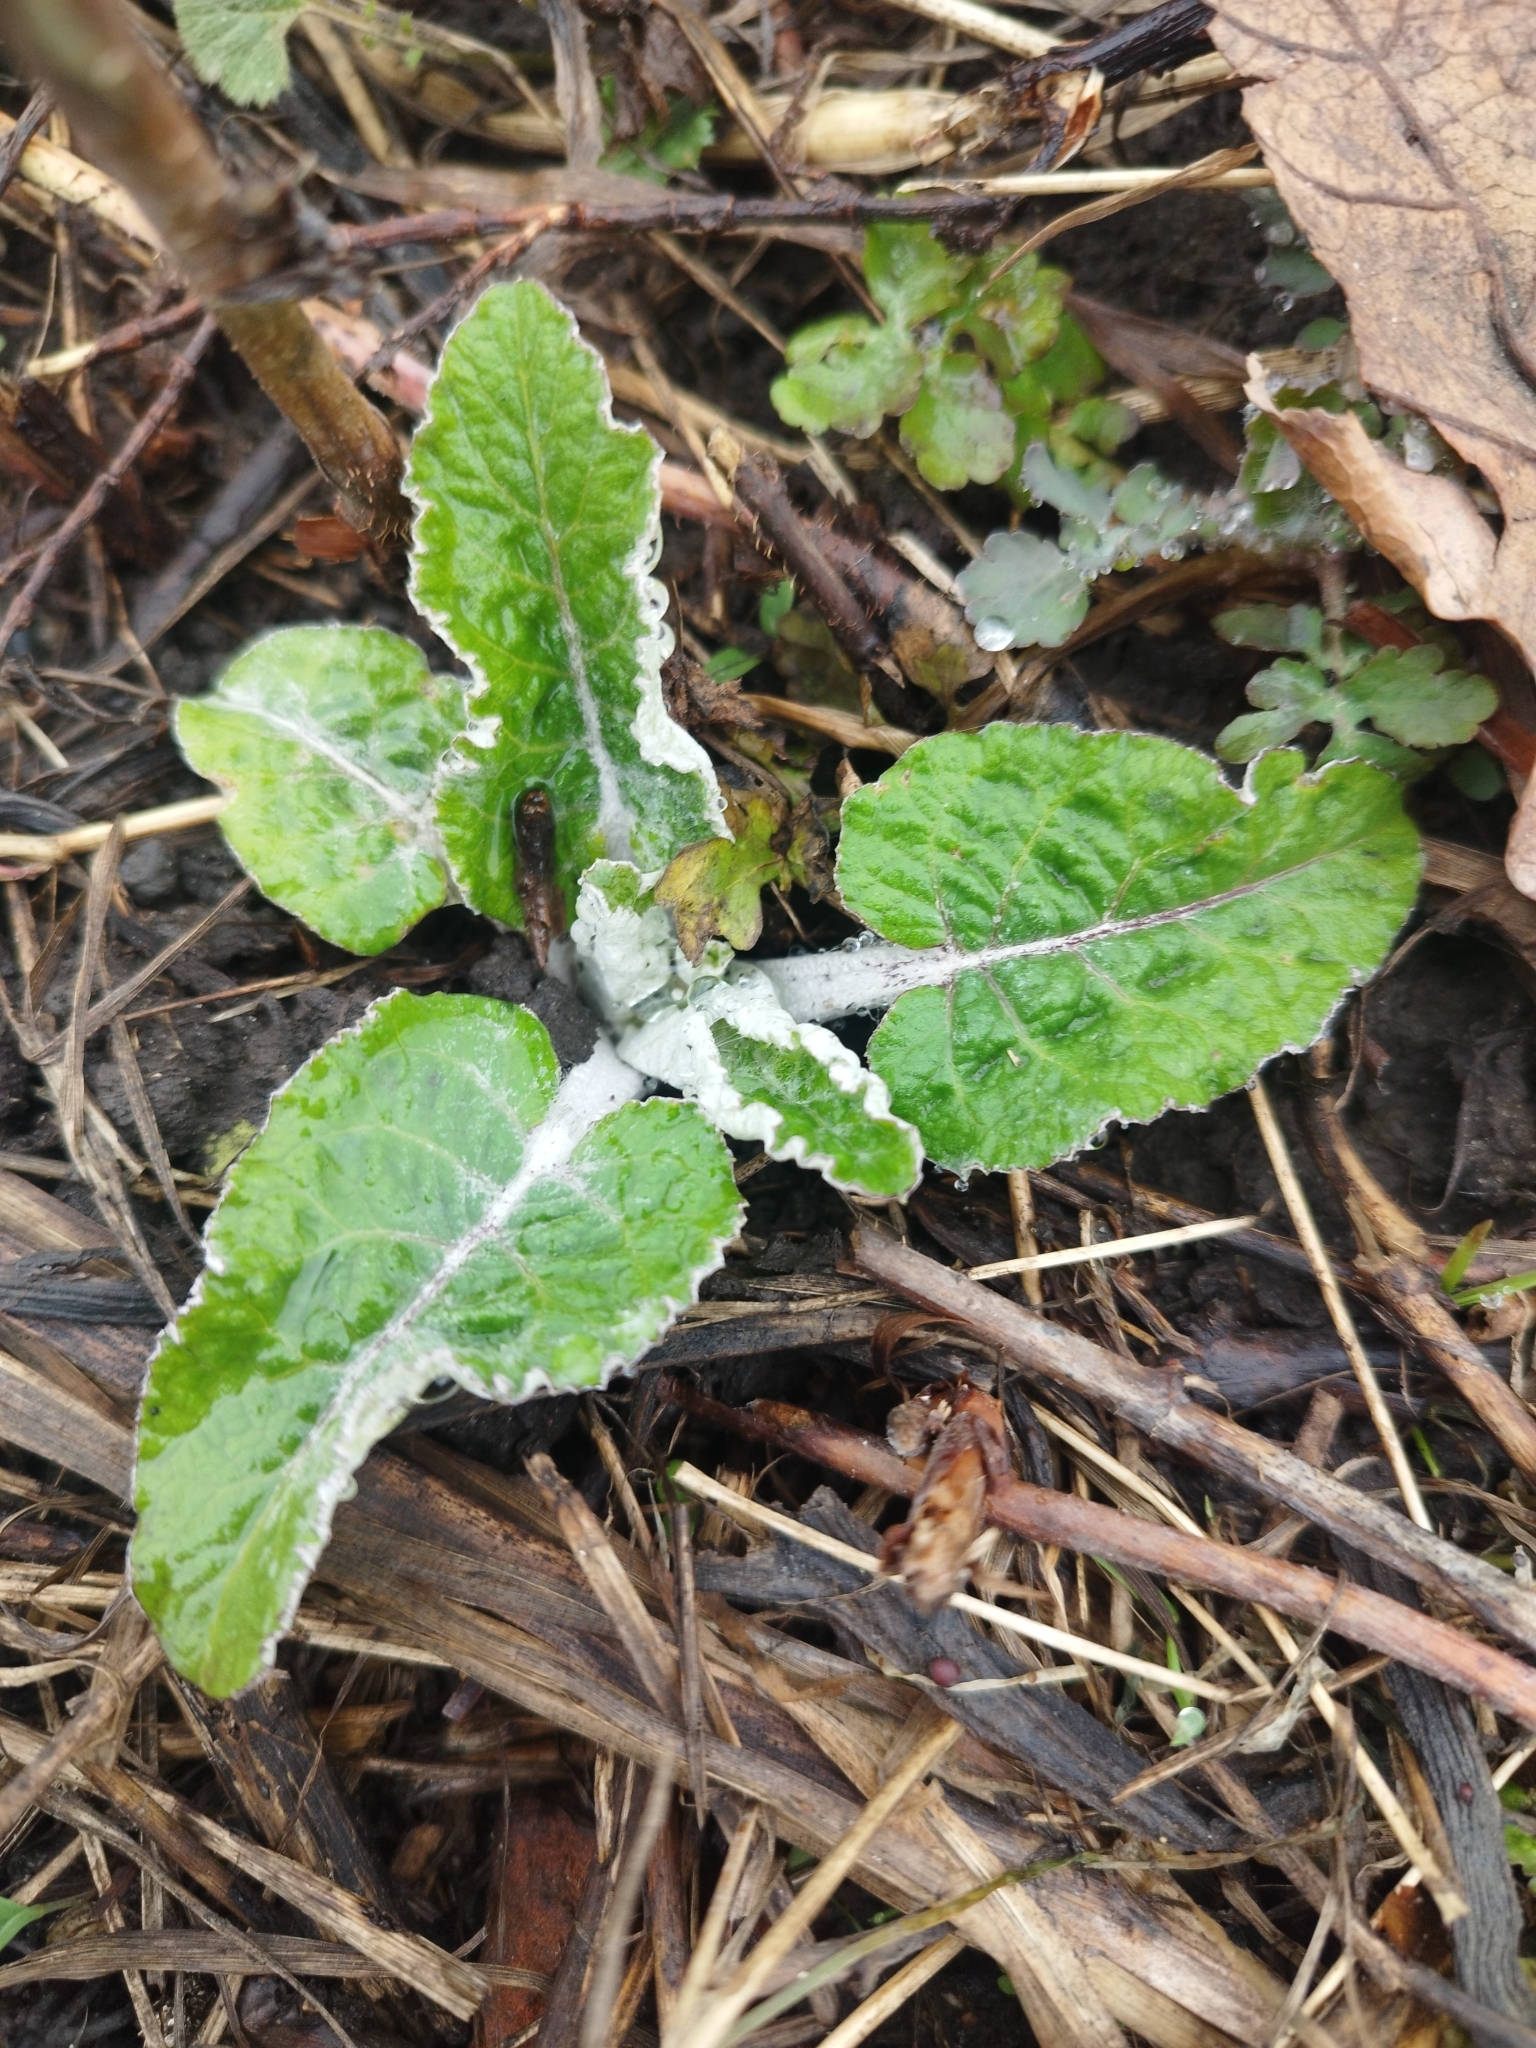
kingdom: Plantae
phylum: Tracheophyta
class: Magnoliopsida
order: Asterales
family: Asteraceae
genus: Arctium
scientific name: Arctium tomentosum
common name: Woolly burdock
